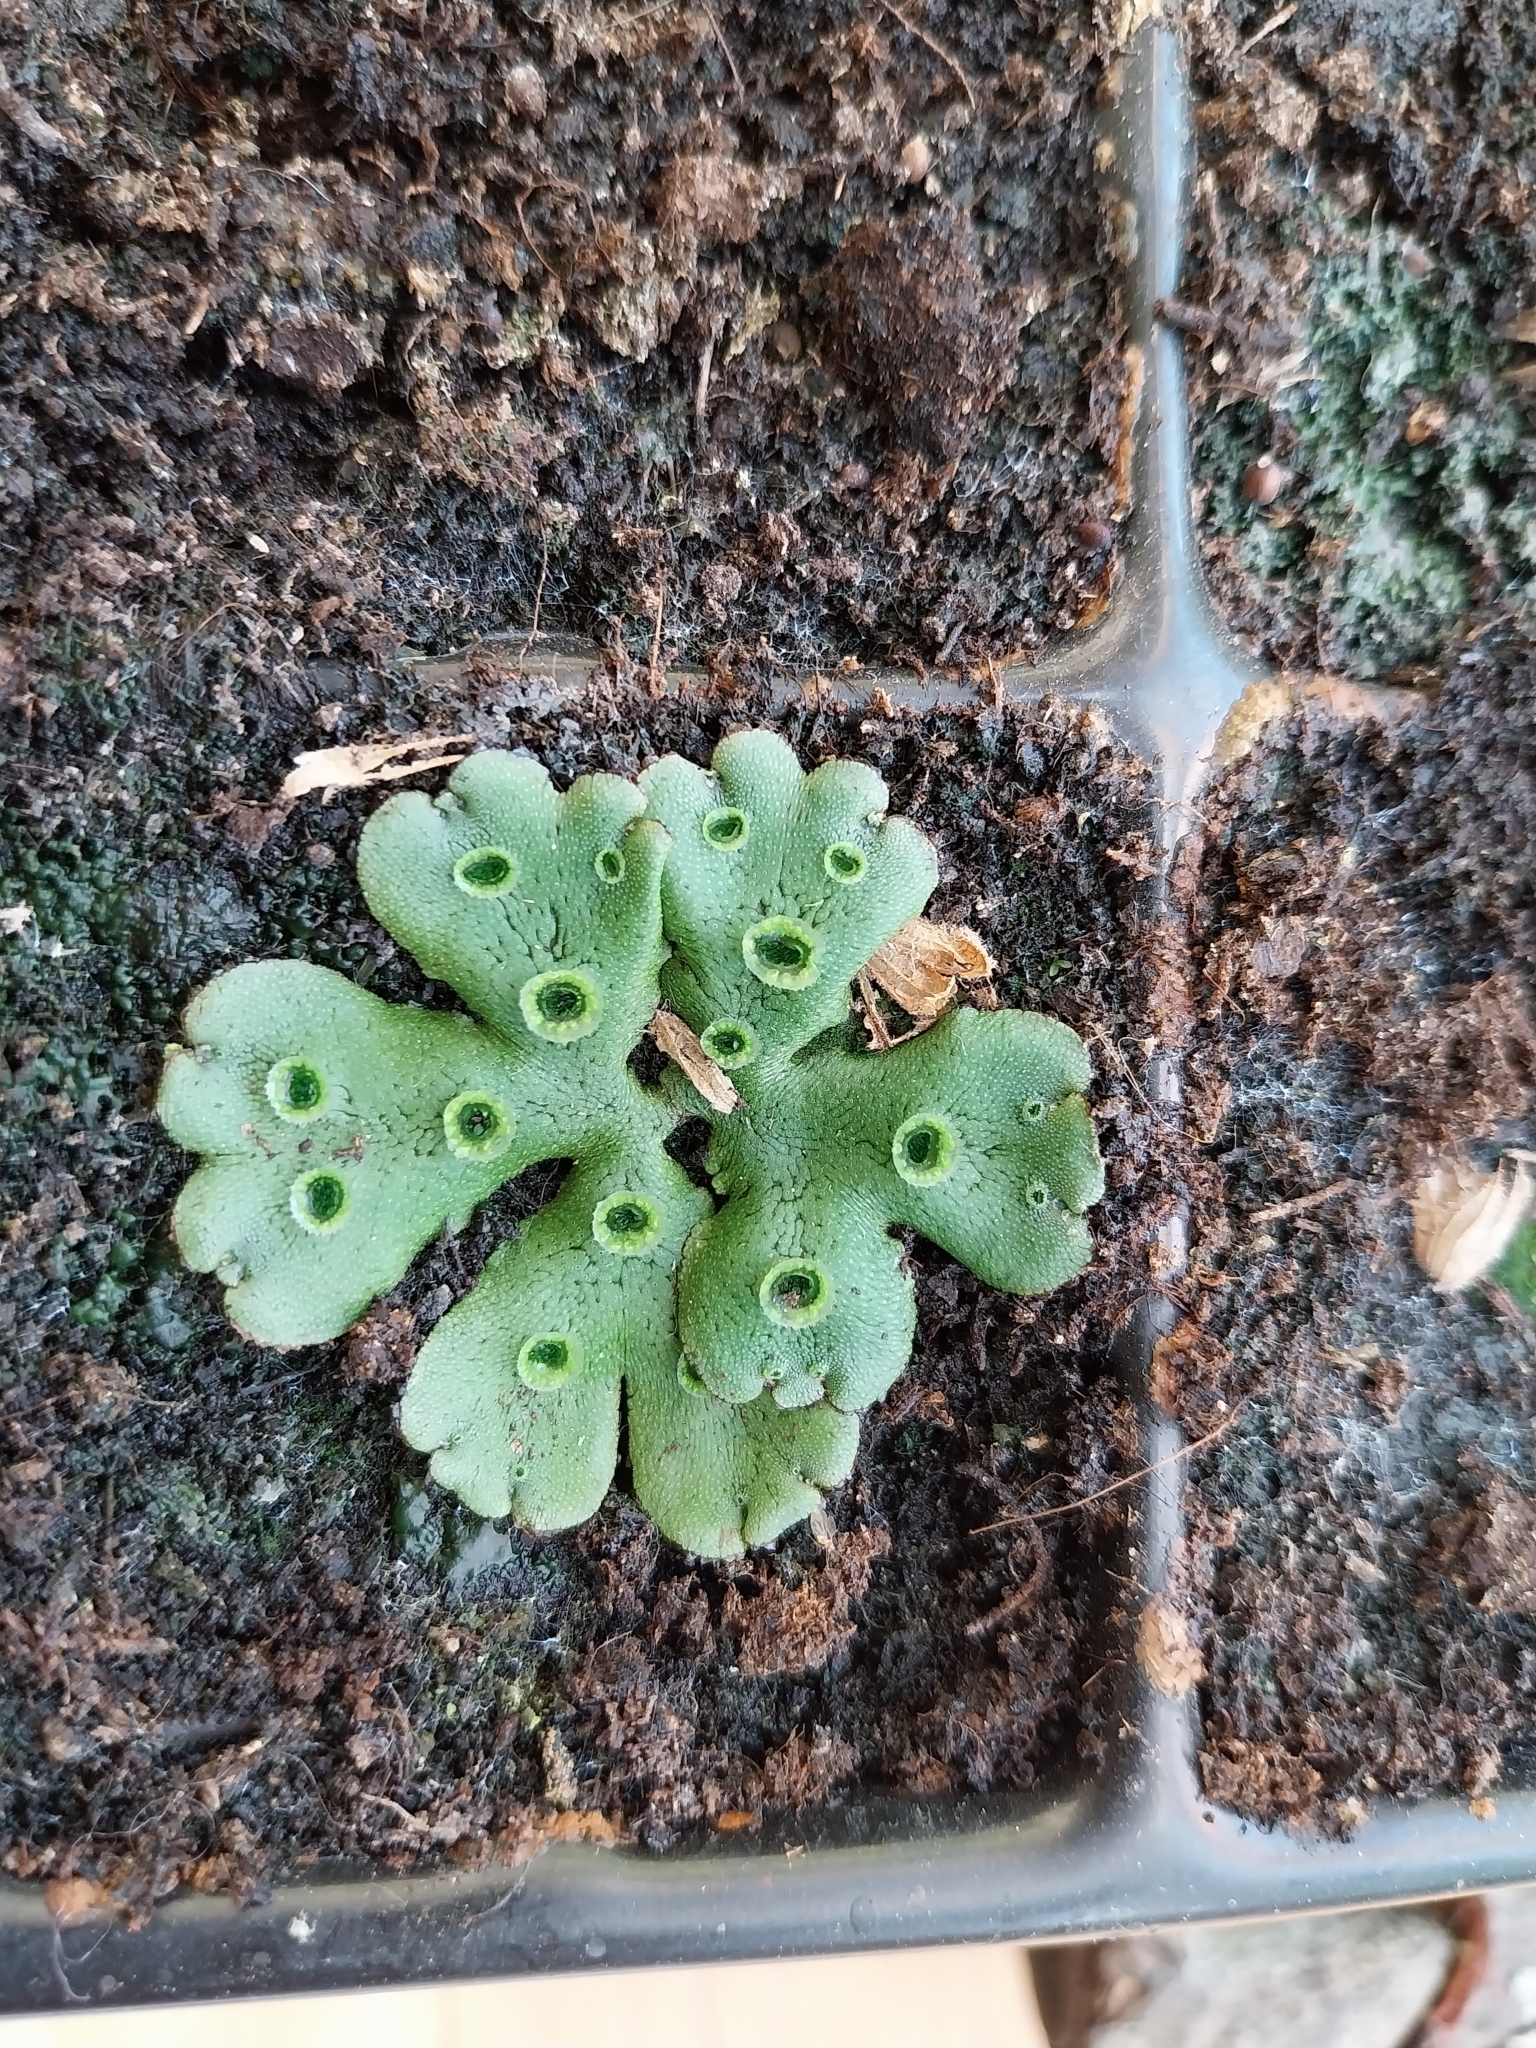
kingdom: Plantae
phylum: Marchantiophyta
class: Marchantiopsida
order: Marchantiales
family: Marchantiaceae
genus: Marchantia
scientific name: Marchantia polymorpha
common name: Common liverwort
